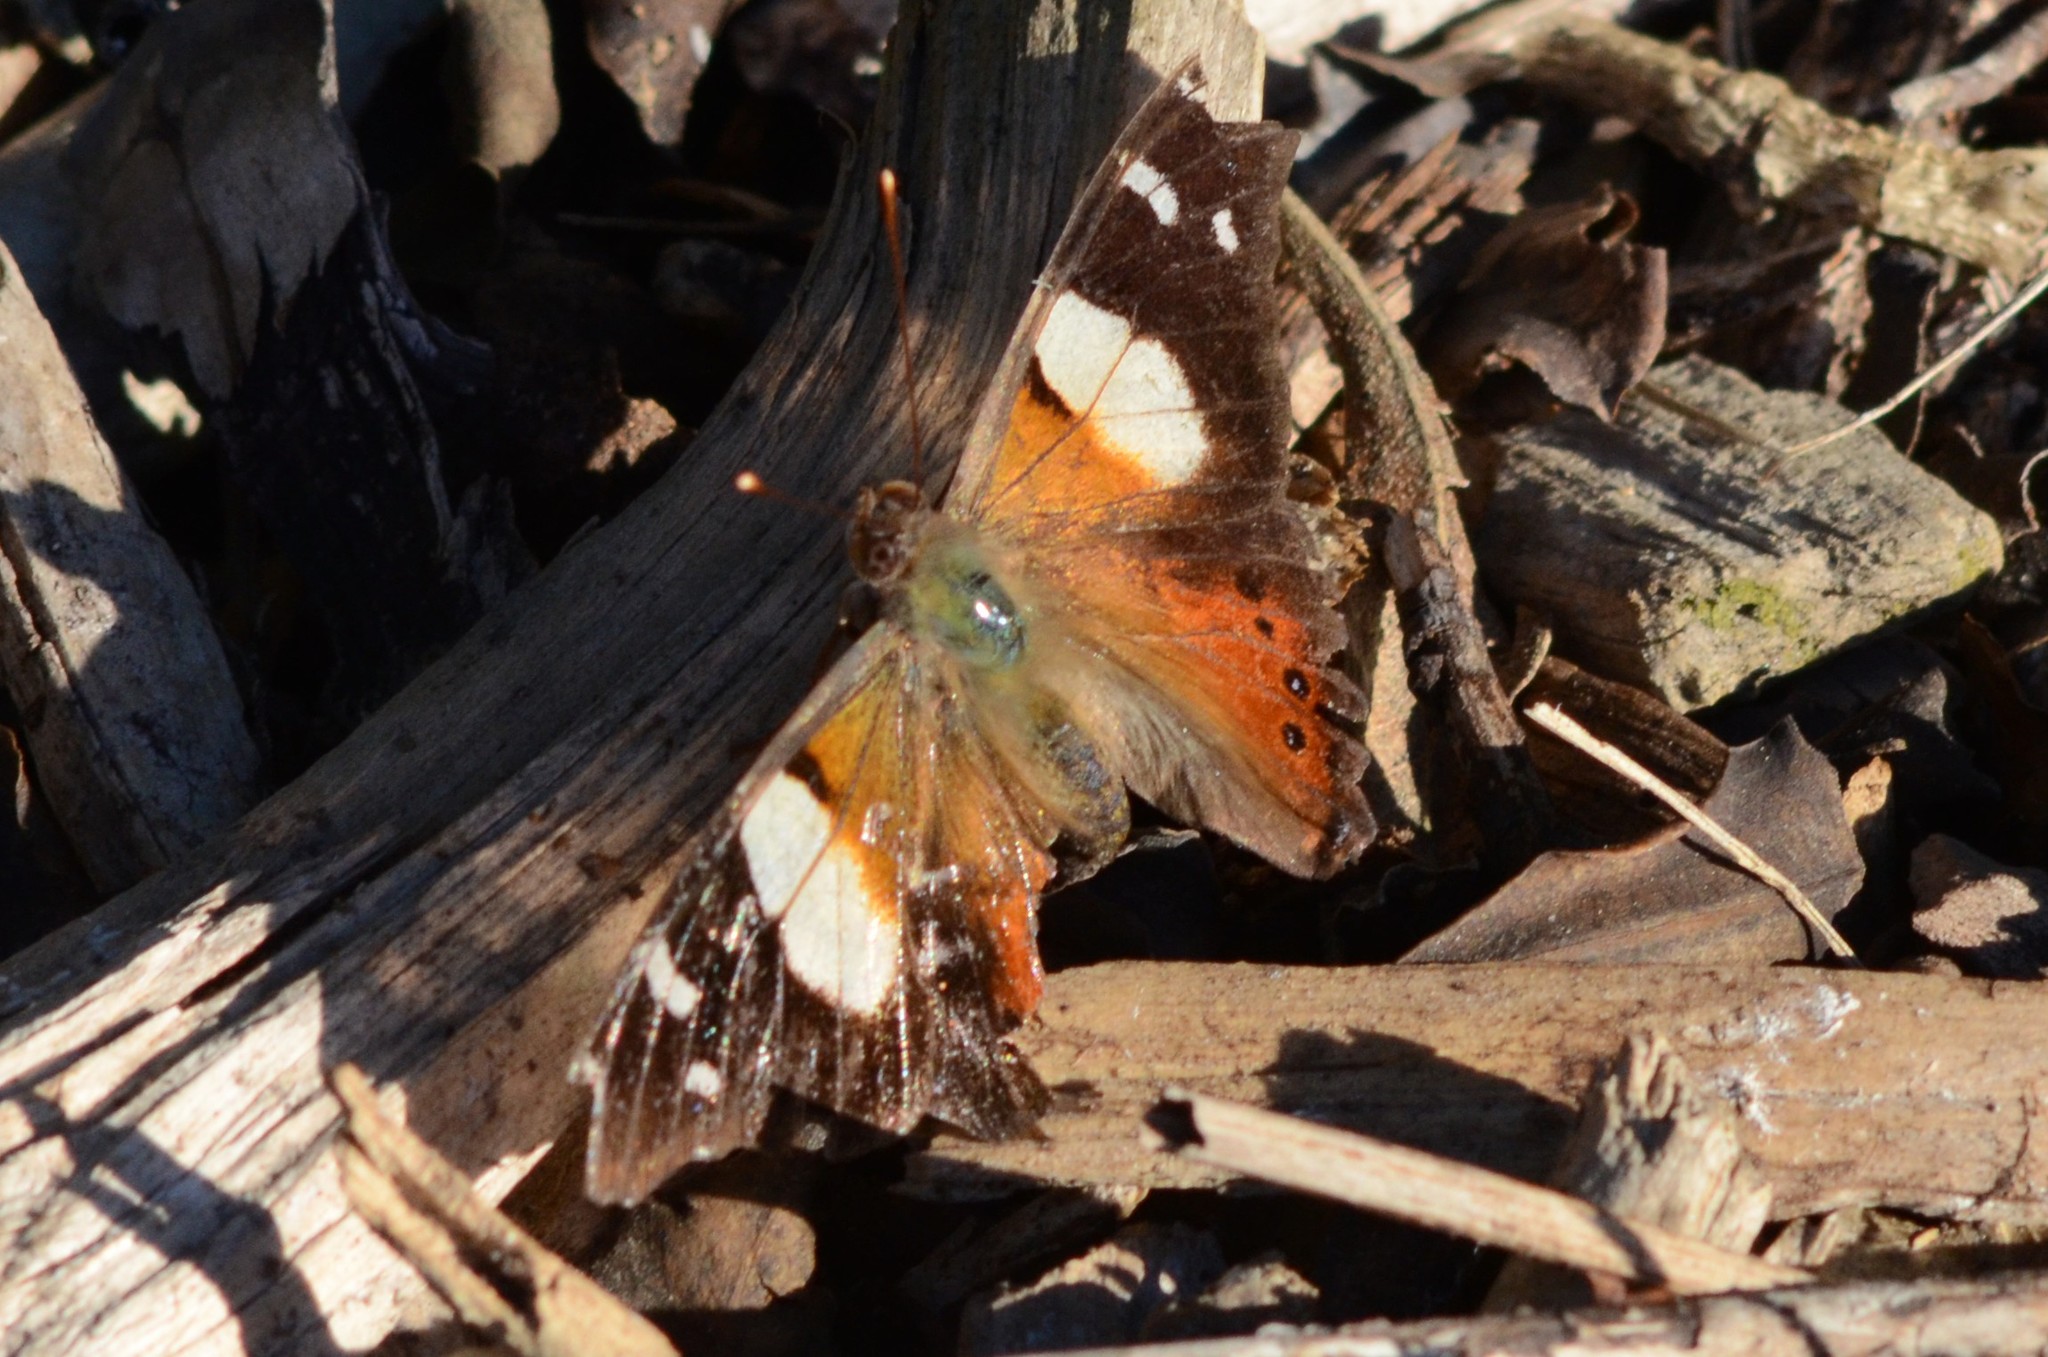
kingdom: Animalia
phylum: Arthropoda
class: Insecta
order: Lepidoptera
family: Nymphalidae
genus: Vanessa
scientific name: Vanessa itea
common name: Yellow admiral
